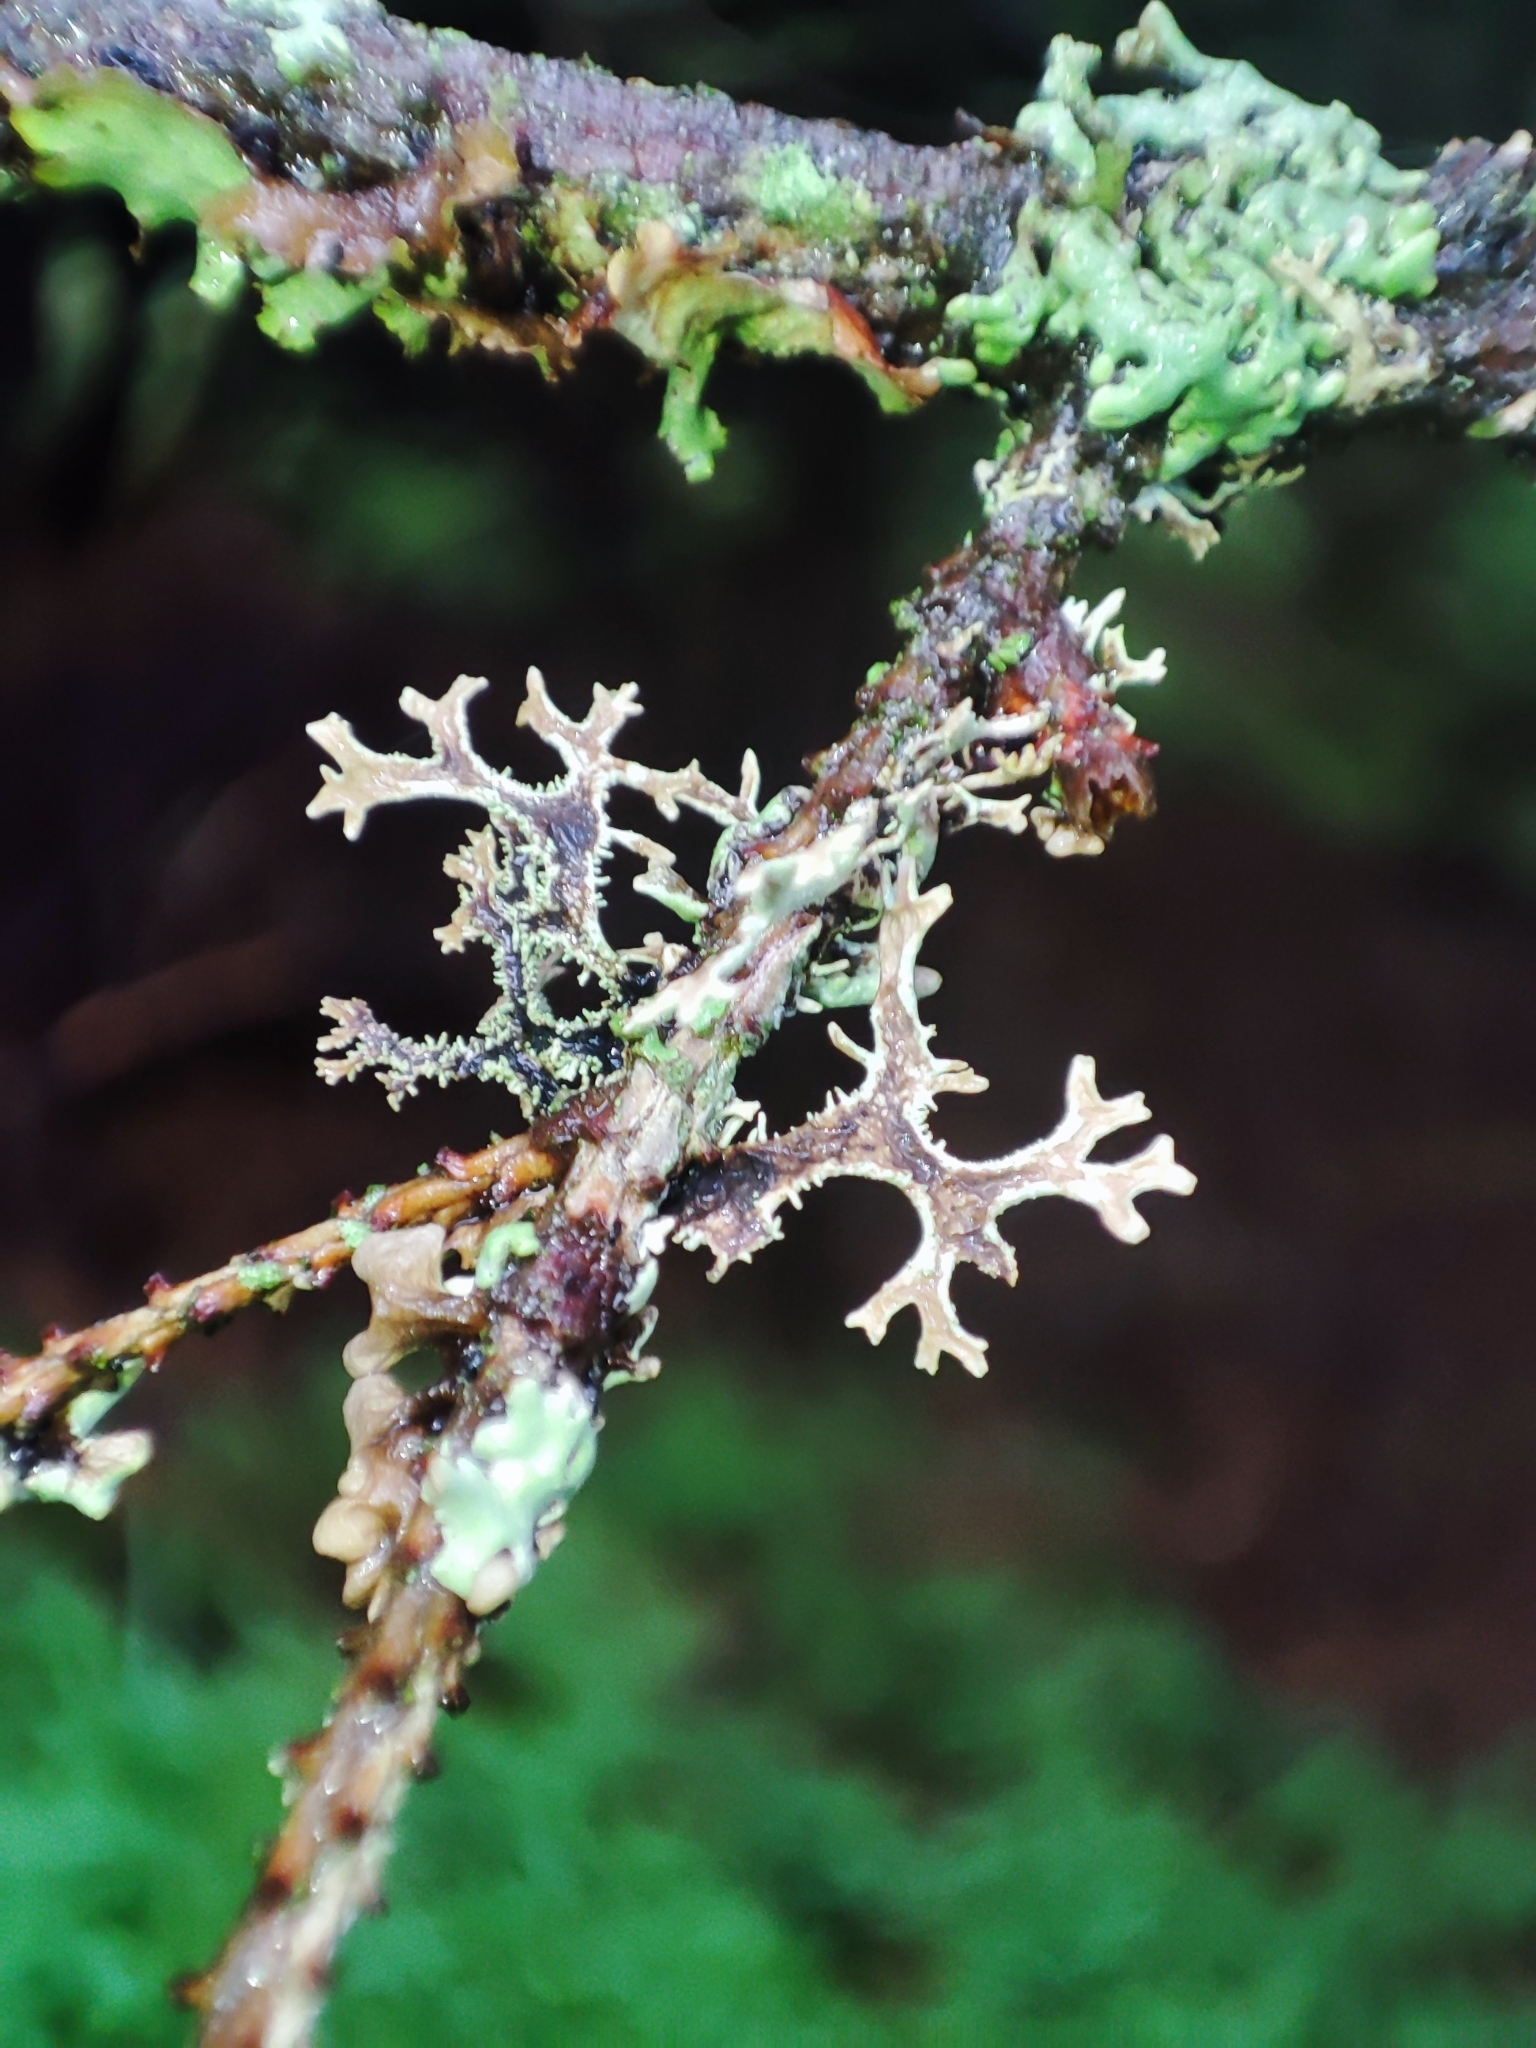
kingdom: Fungi
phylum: Ascomycota
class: Lecanoromycetes
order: Lecanorales
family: Parmeliaceae
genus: Pseudevernia
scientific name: Pseudevernia furfuracea
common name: Tree moss
